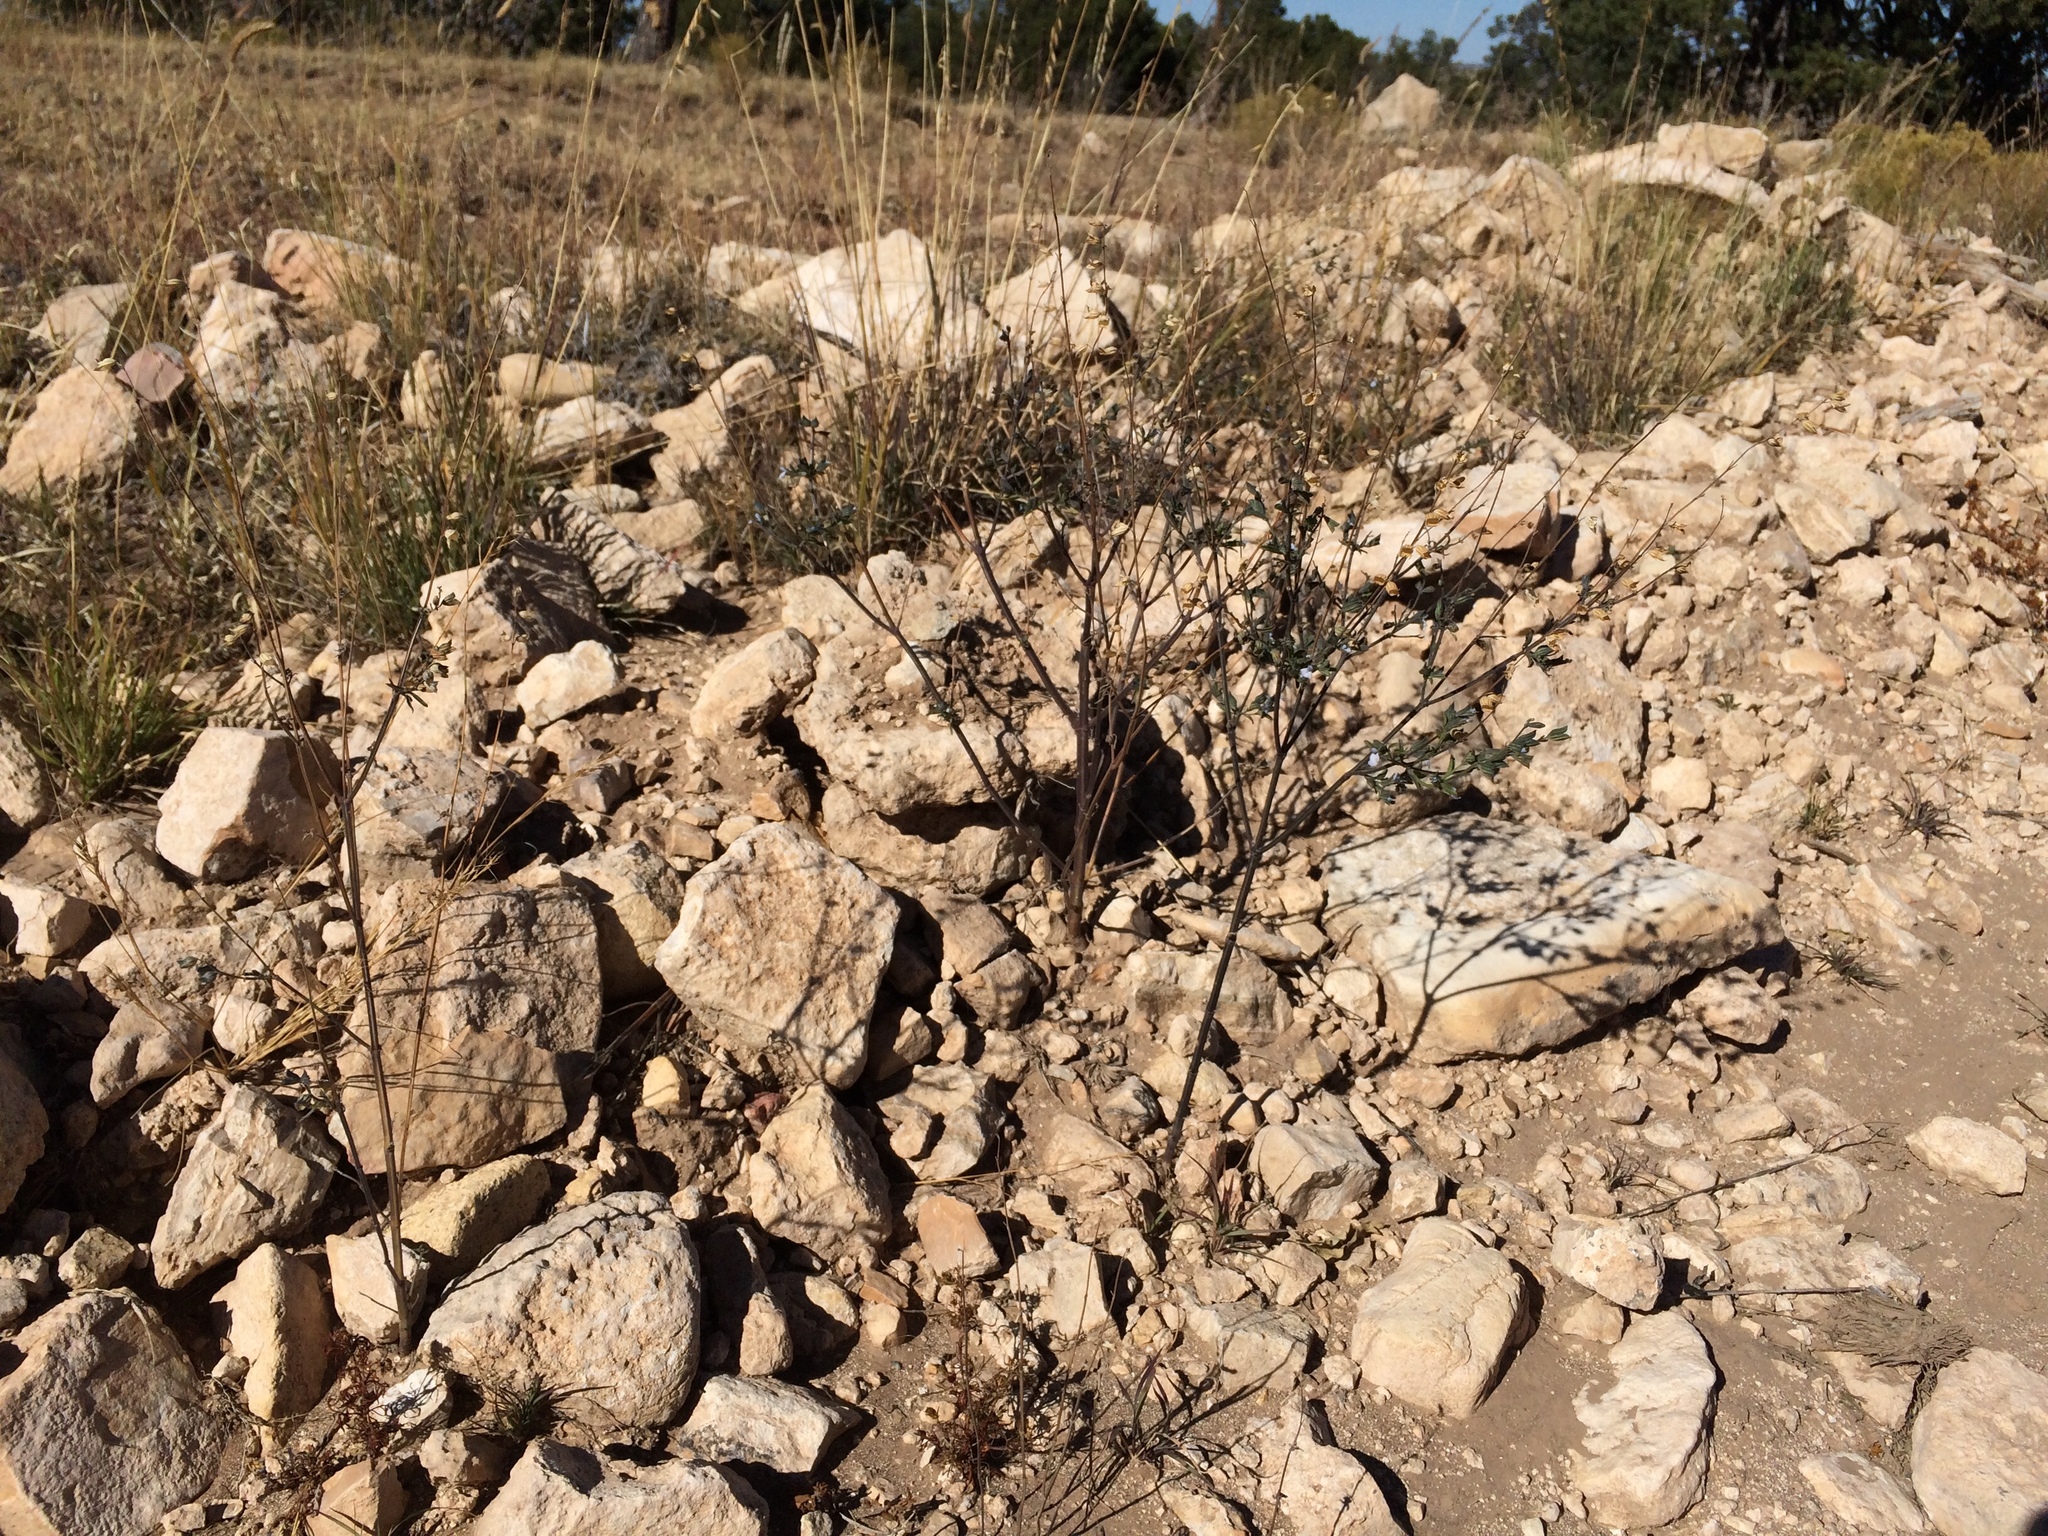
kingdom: Plantae
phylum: Tracheophyta
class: Magnoliopsida
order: Lamiales
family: Lamiaceae
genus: Salvia
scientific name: Salvia reflexa
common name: Mintweed
